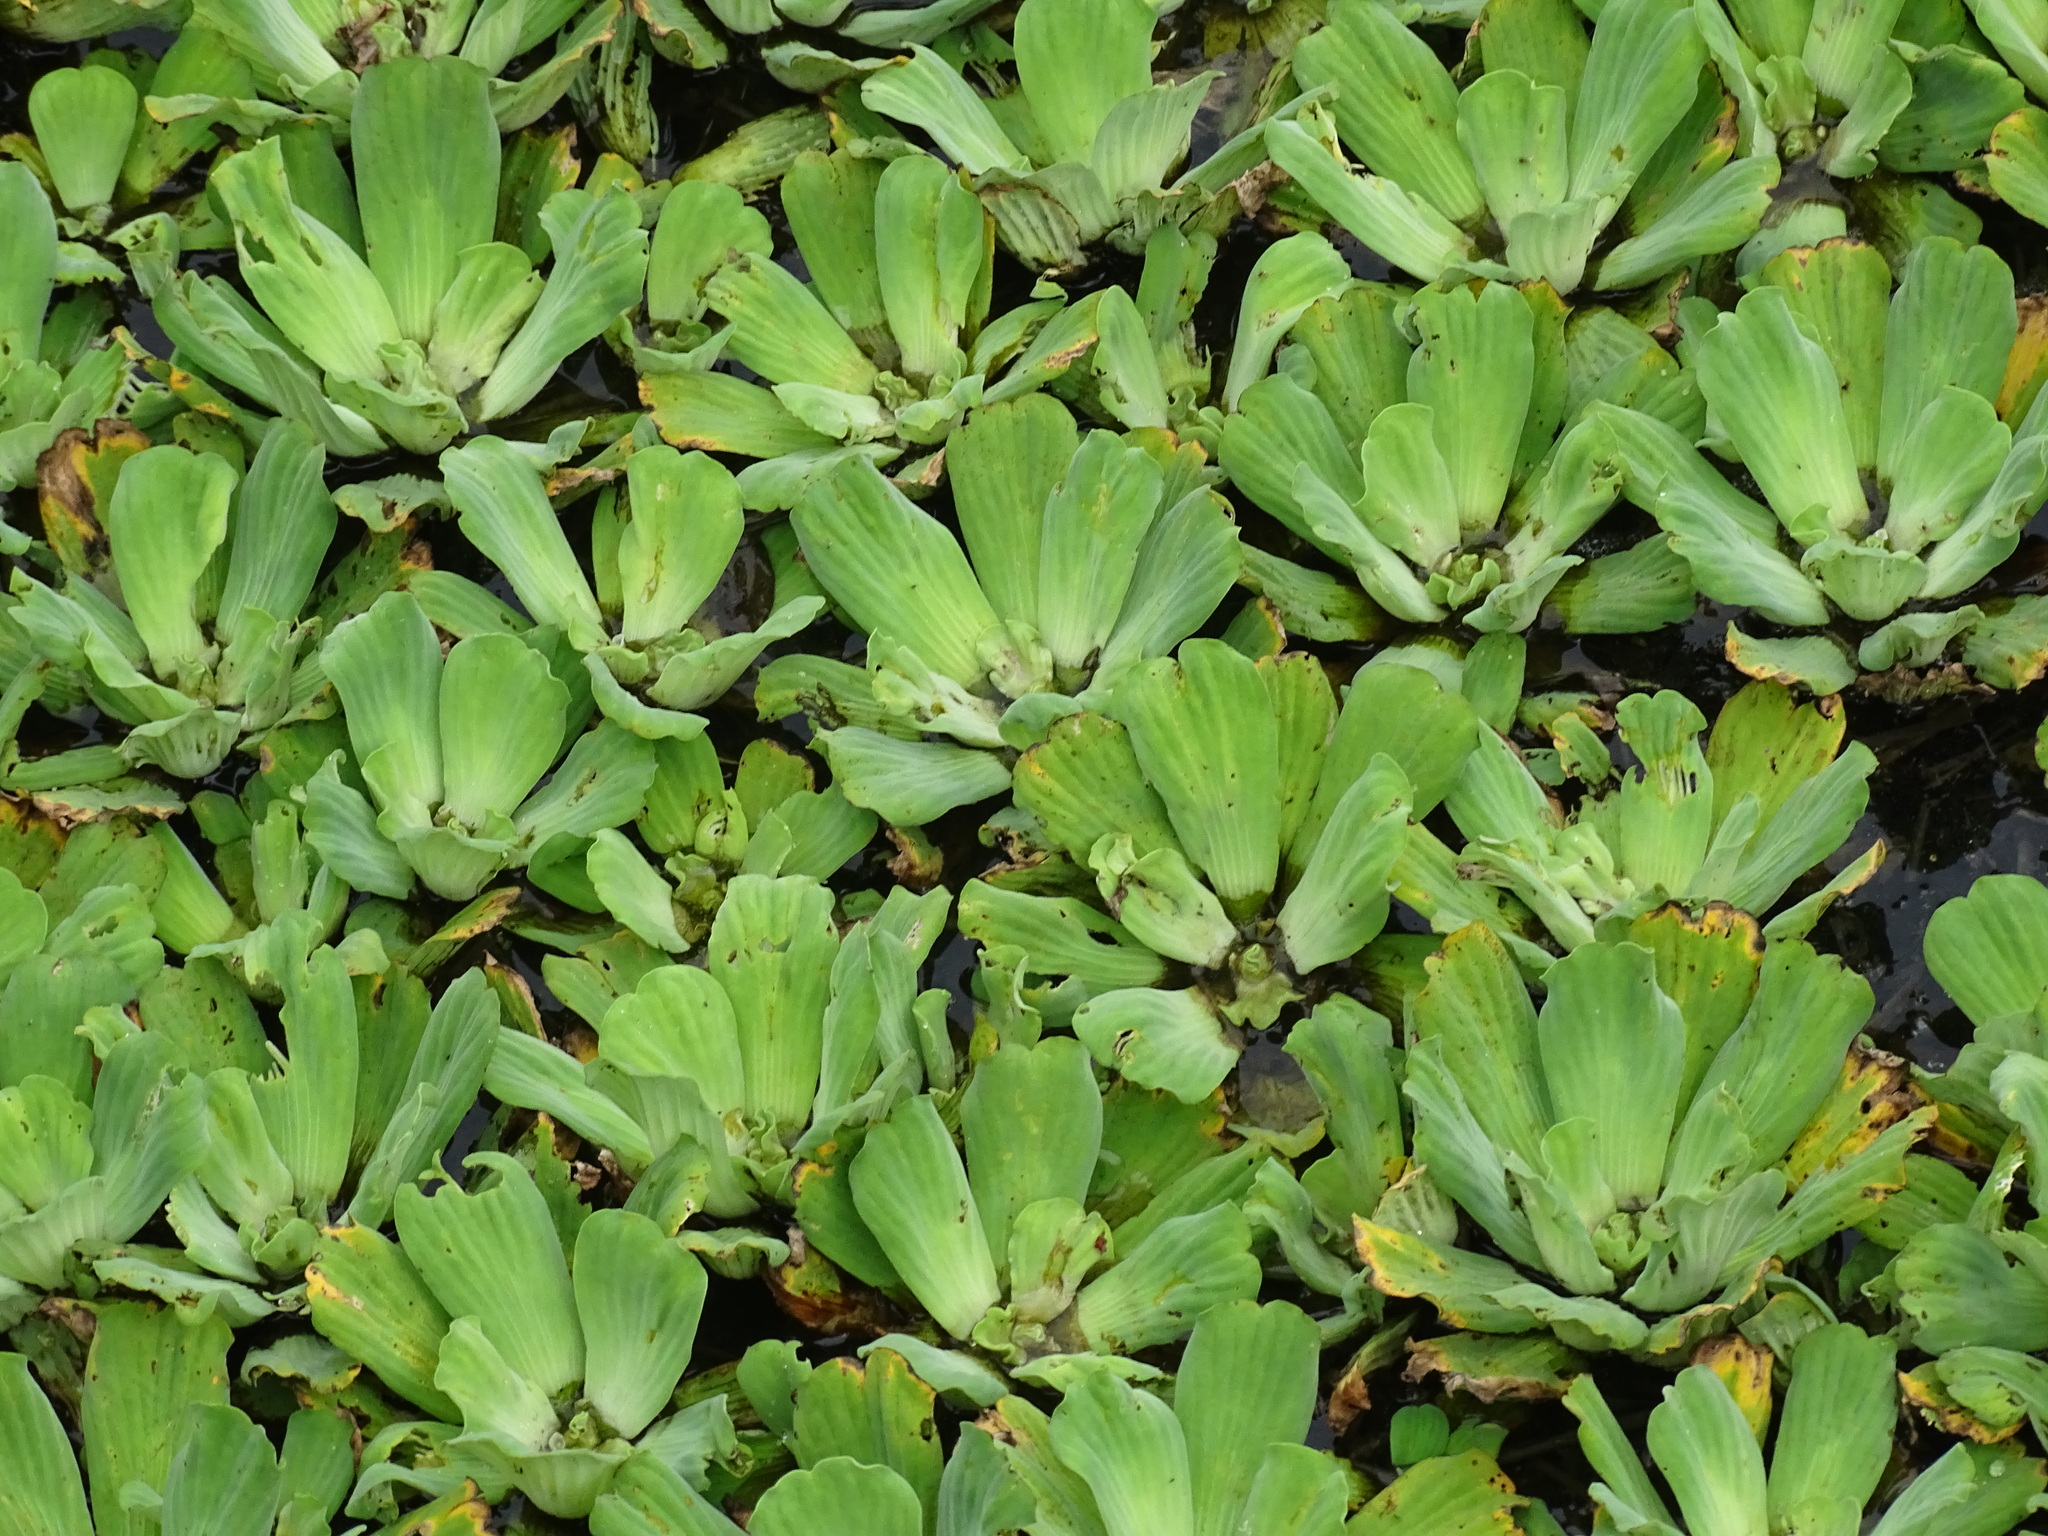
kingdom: Plantae
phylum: Tracheophyta
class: Liliopsida
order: Alismatales
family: Araceae
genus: Pistia
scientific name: Pistia stratiotes
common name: Water lettuce
